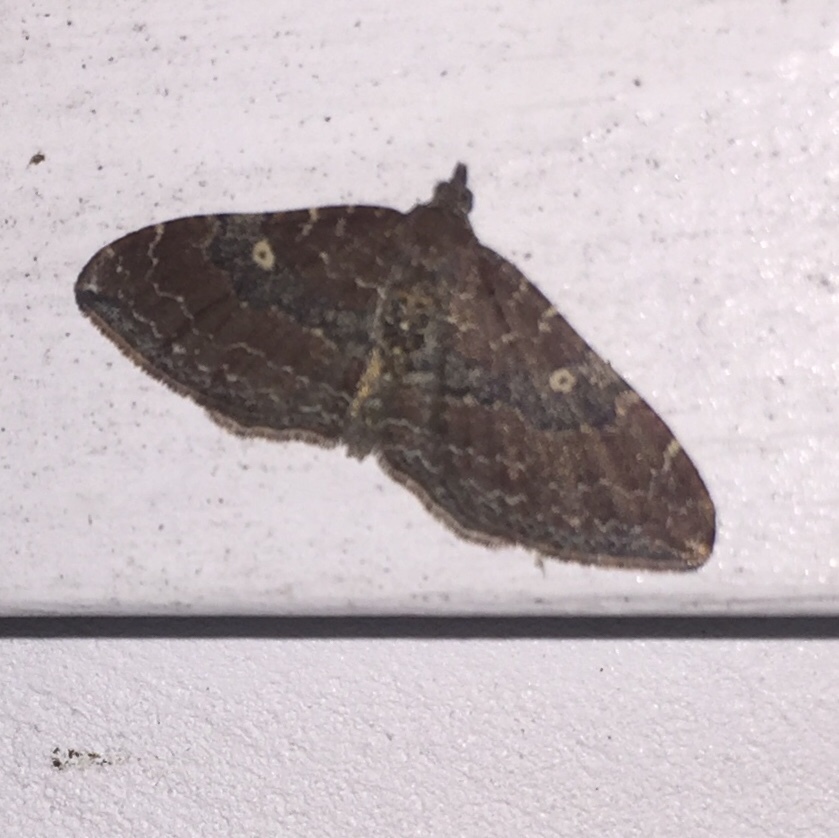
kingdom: Animalia
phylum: Arthropoda
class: Insecta
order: Lepidoptera
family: Geometridae
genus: Orthonama
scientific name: Orthonama obstipata
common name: The gem
